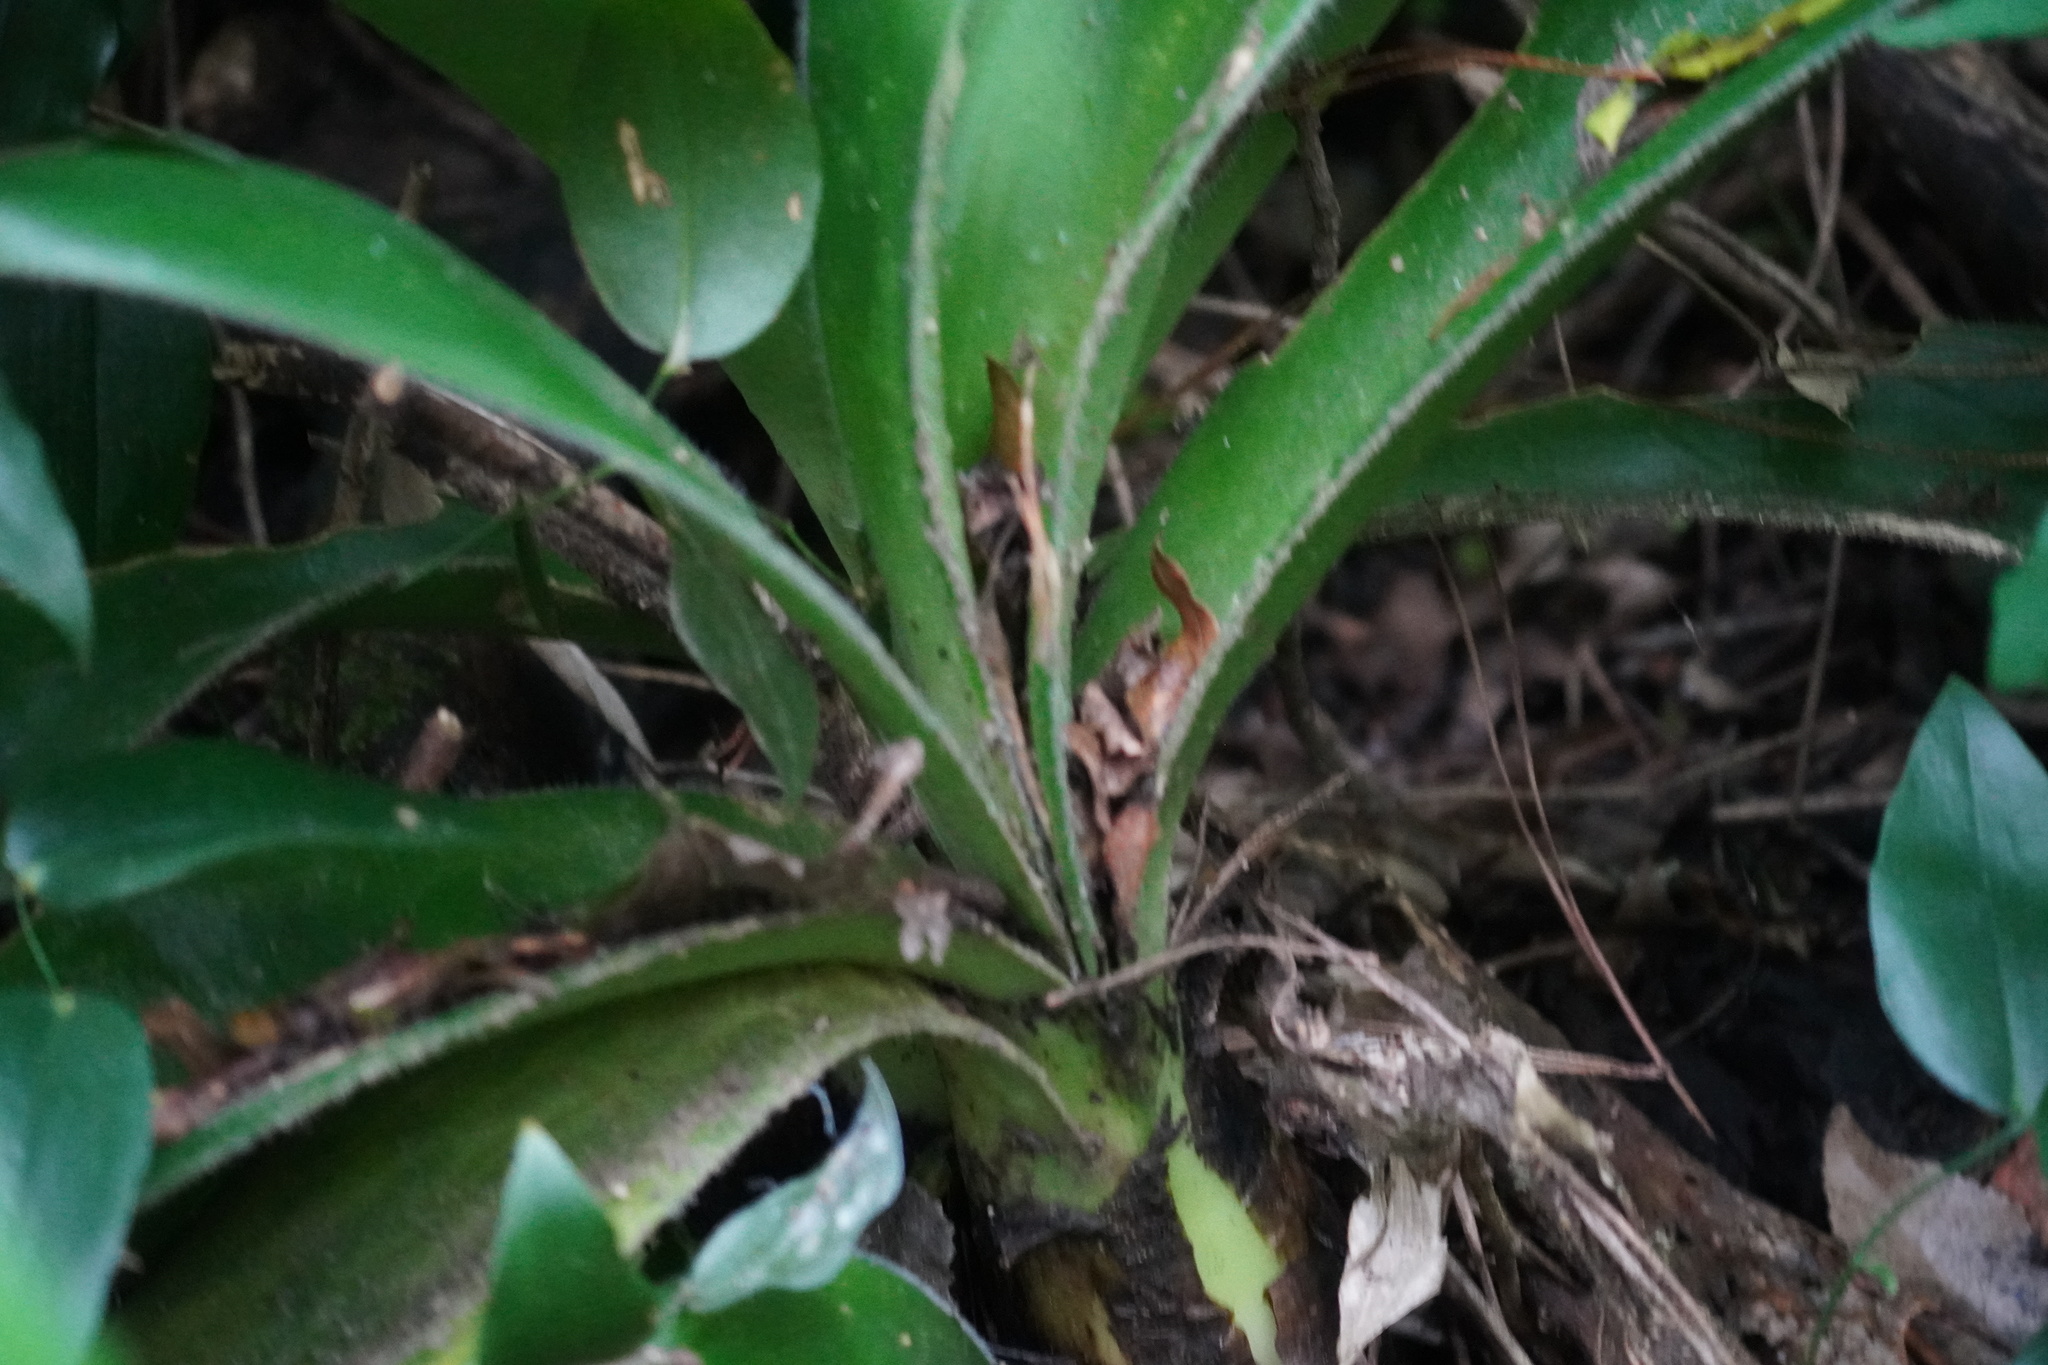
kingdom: Plantae
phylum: Tracheophyta
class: Liliopsida
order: Asparagales
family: Amaryllidaceae
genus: Haemanthus
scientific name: Haemanthus albiflos
